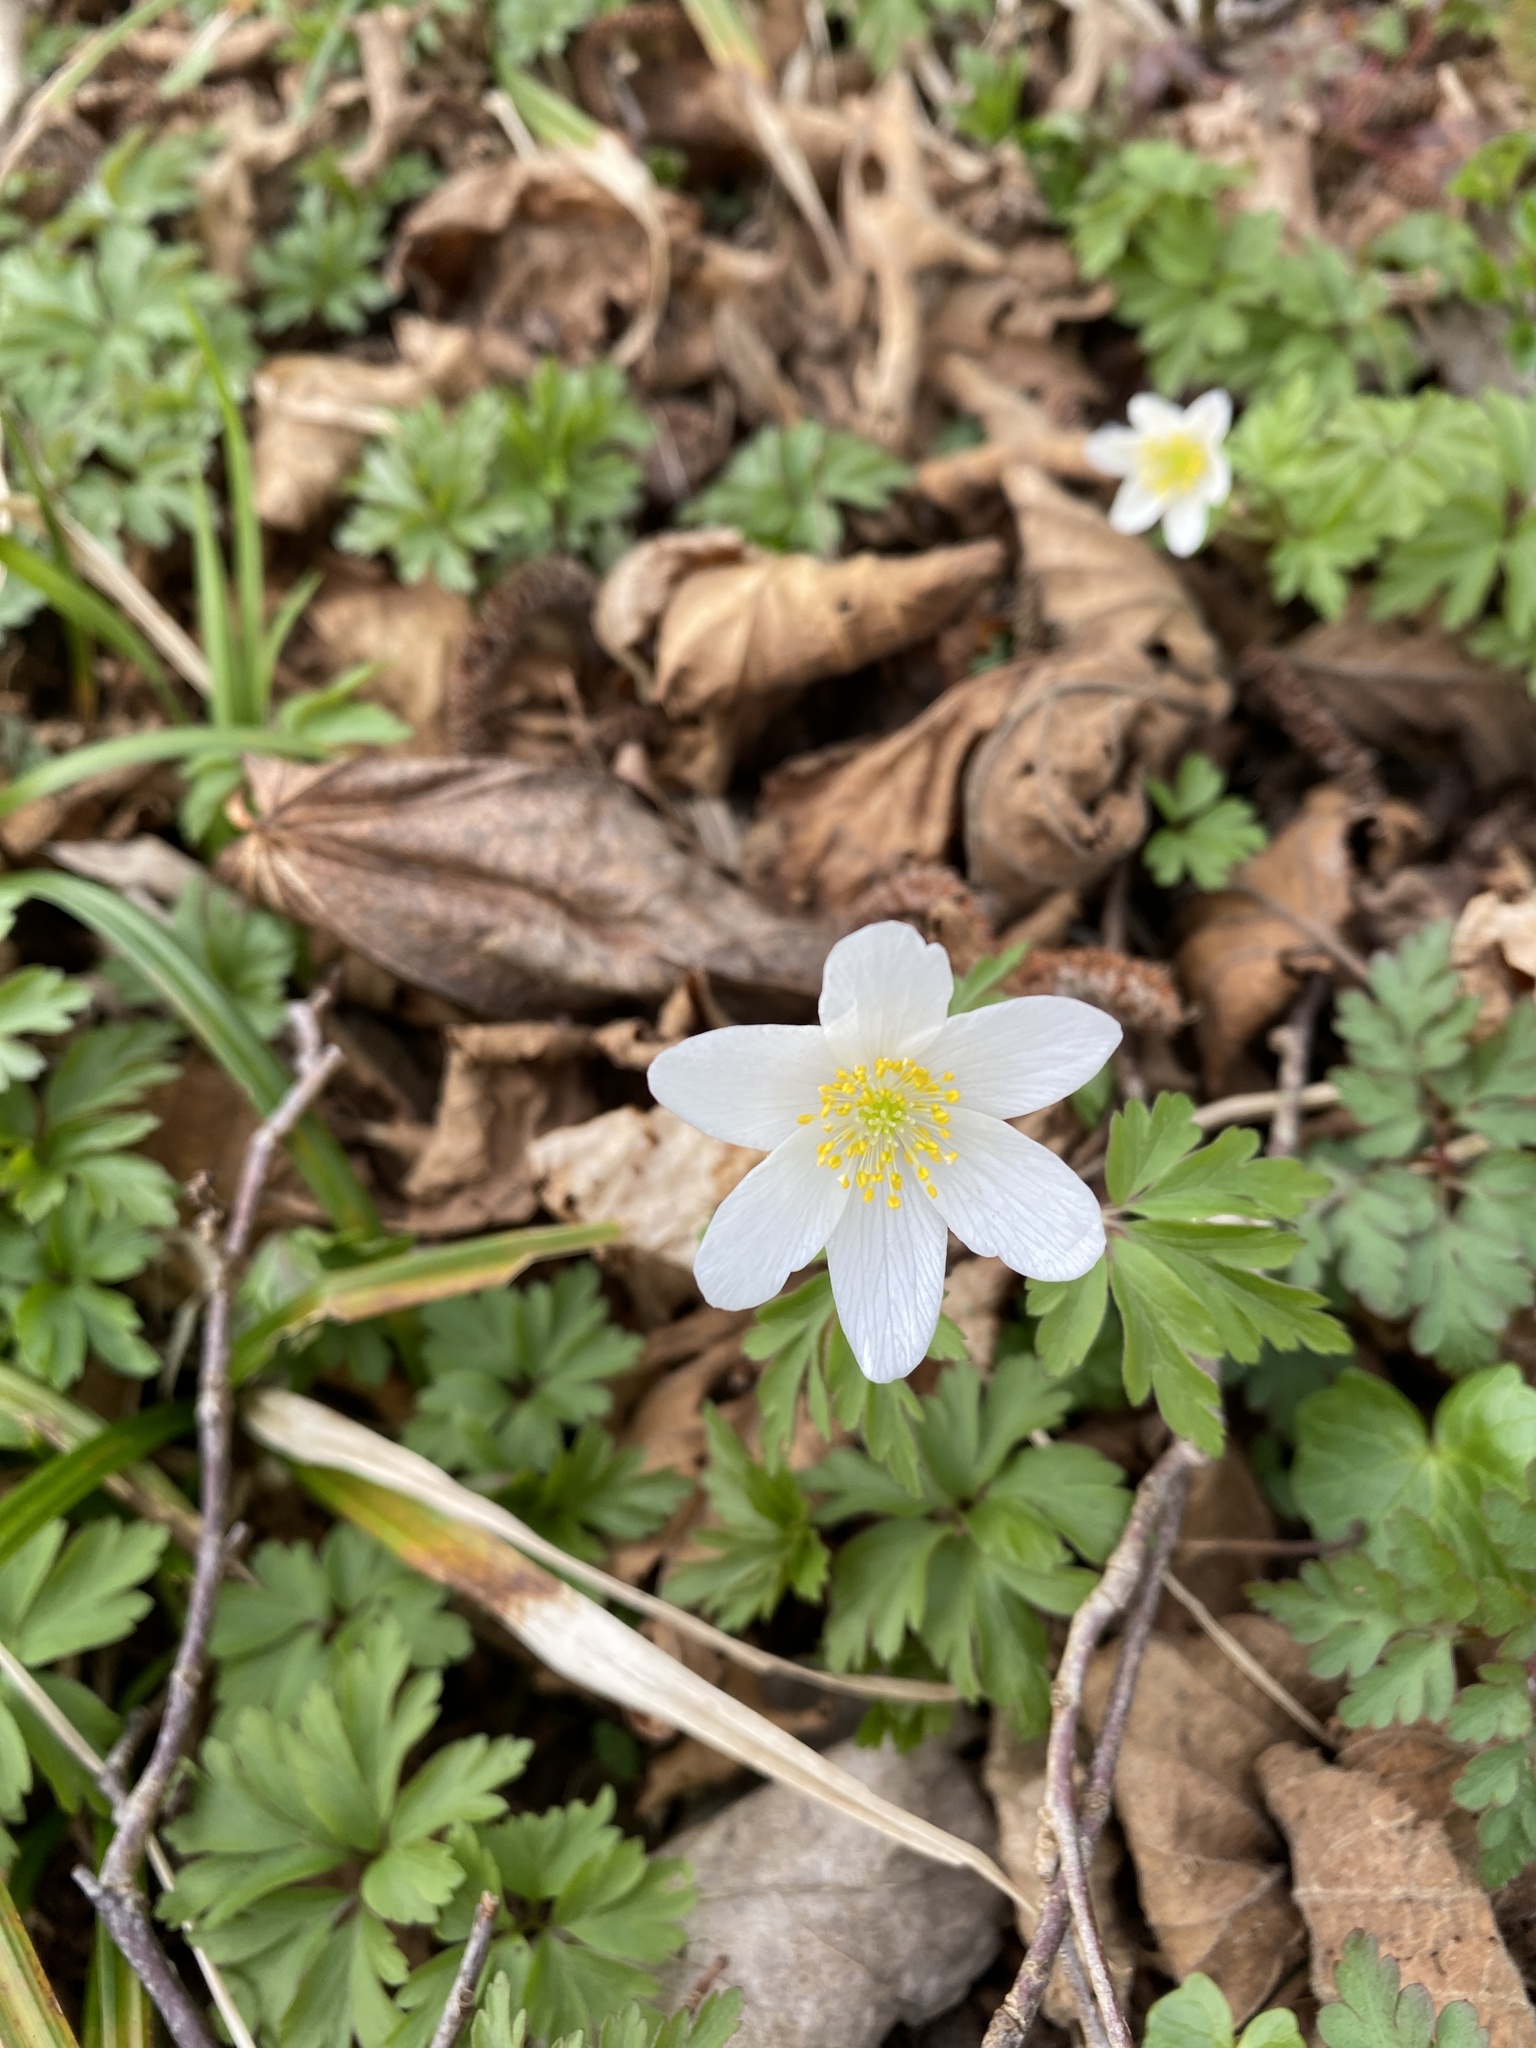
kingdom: Plantae
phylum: Tracheophyta
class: Magnoliopsida
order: Ranunculales
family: Ranunculaceae
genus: Anemone
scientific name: Anemone nemorosa
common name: Wood anemone
